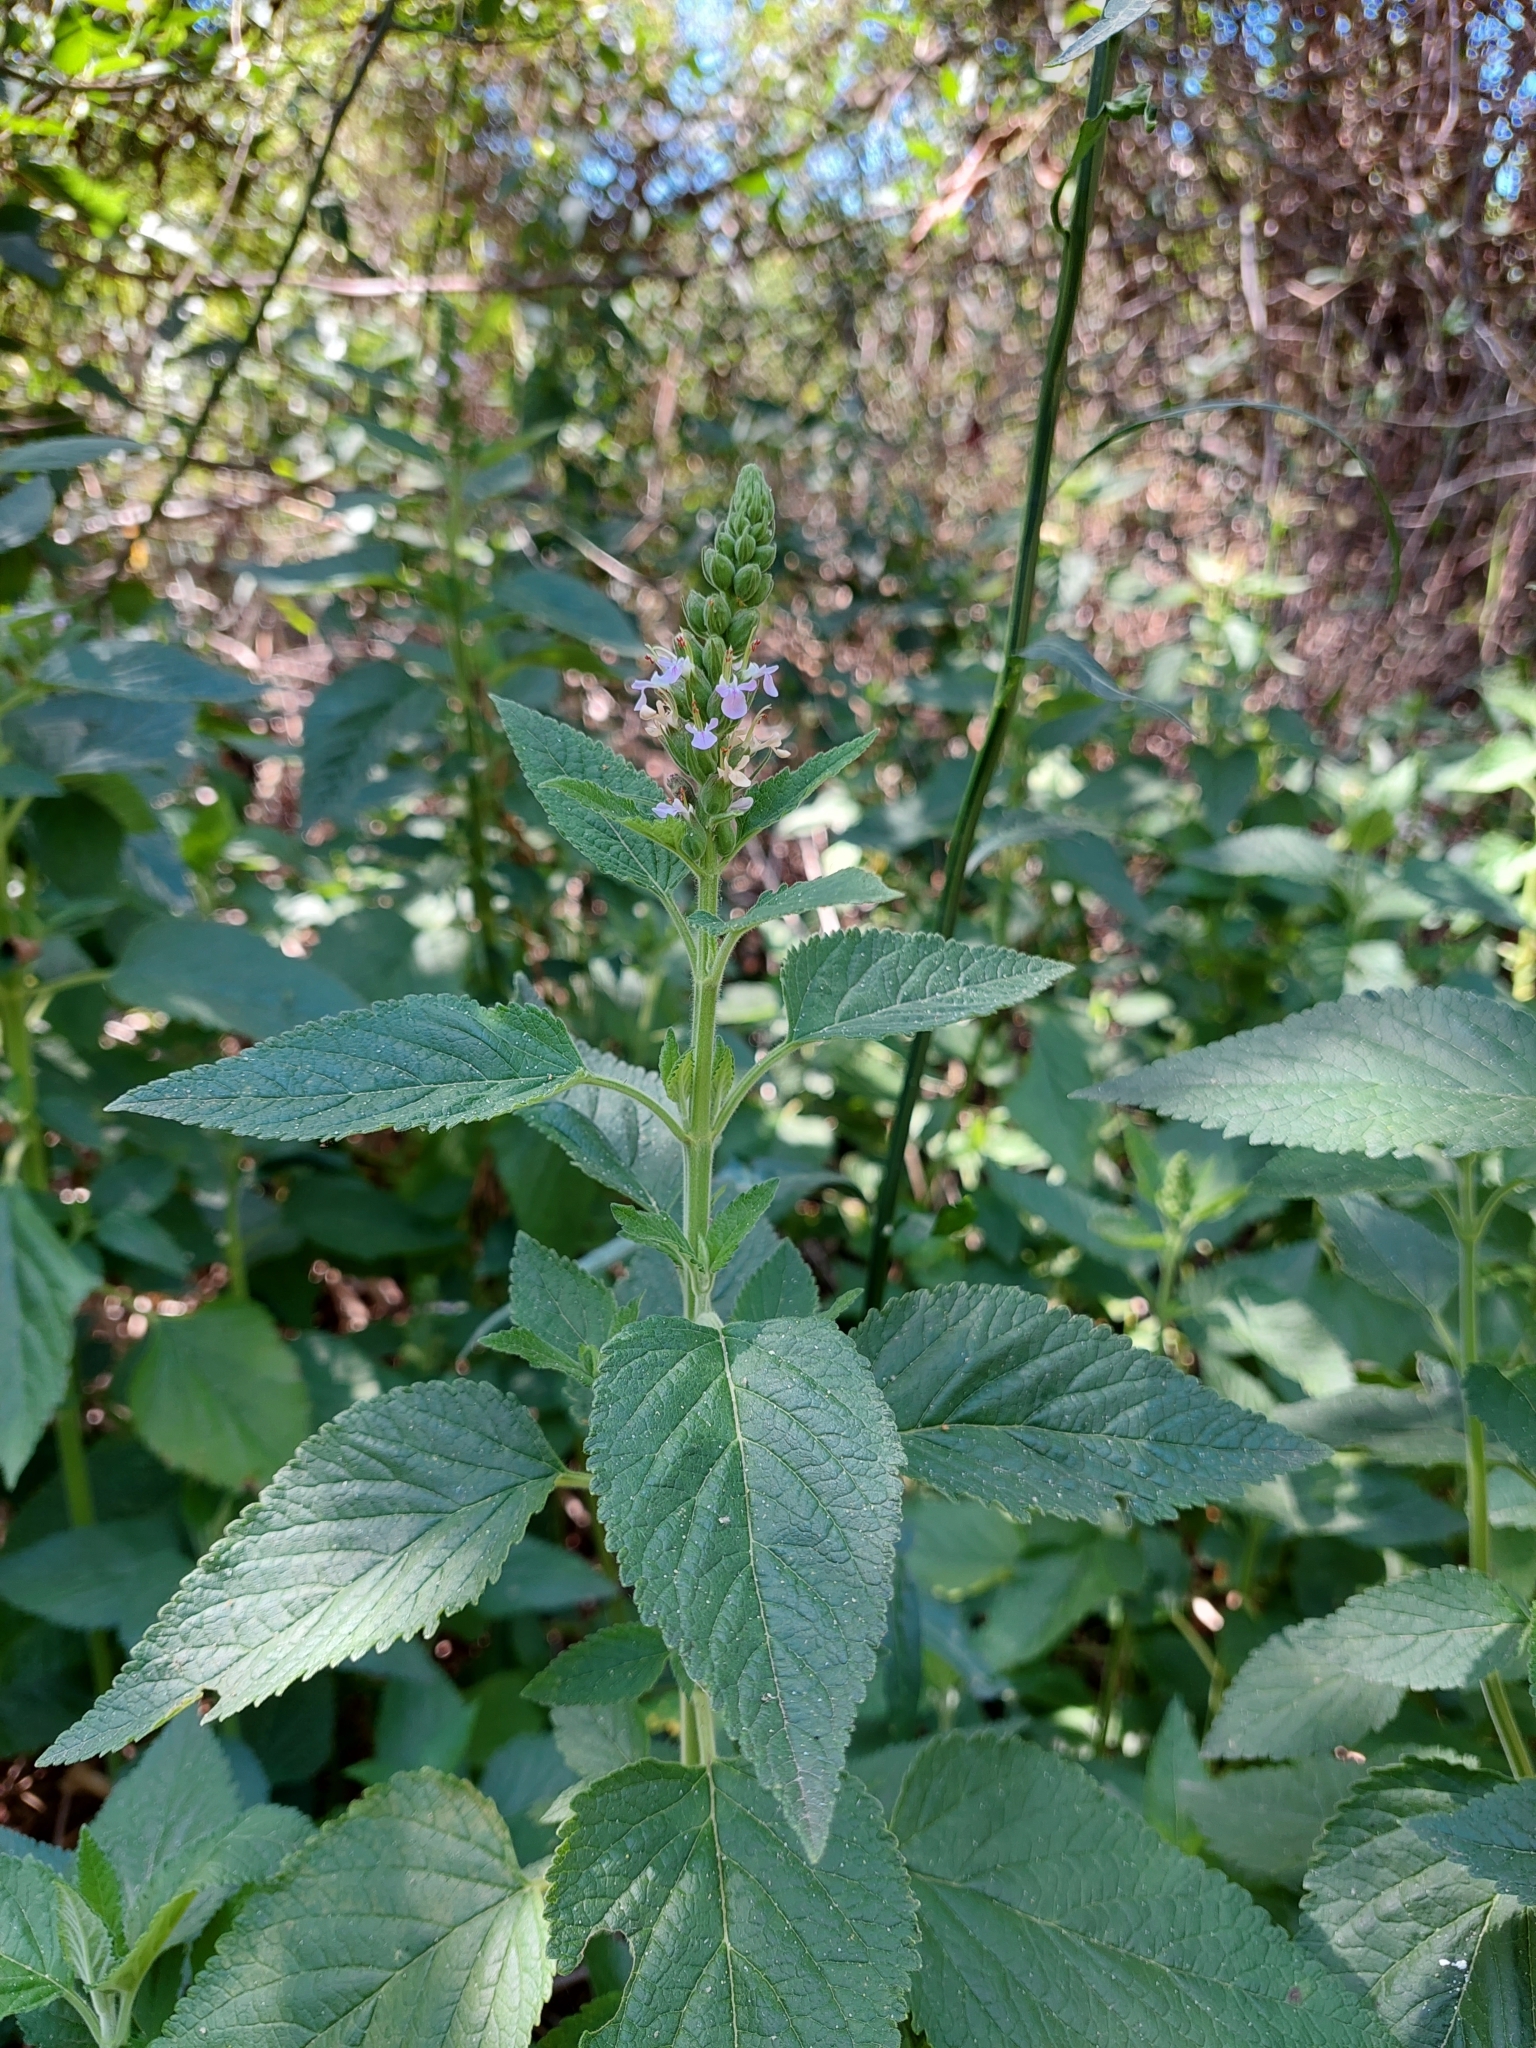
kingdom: Plantae
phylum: Tracheophyta
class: Magnoliopsida
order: Lamiales
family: Lamiaceae
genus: Teucrium
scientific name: Teucrium vesicarium
